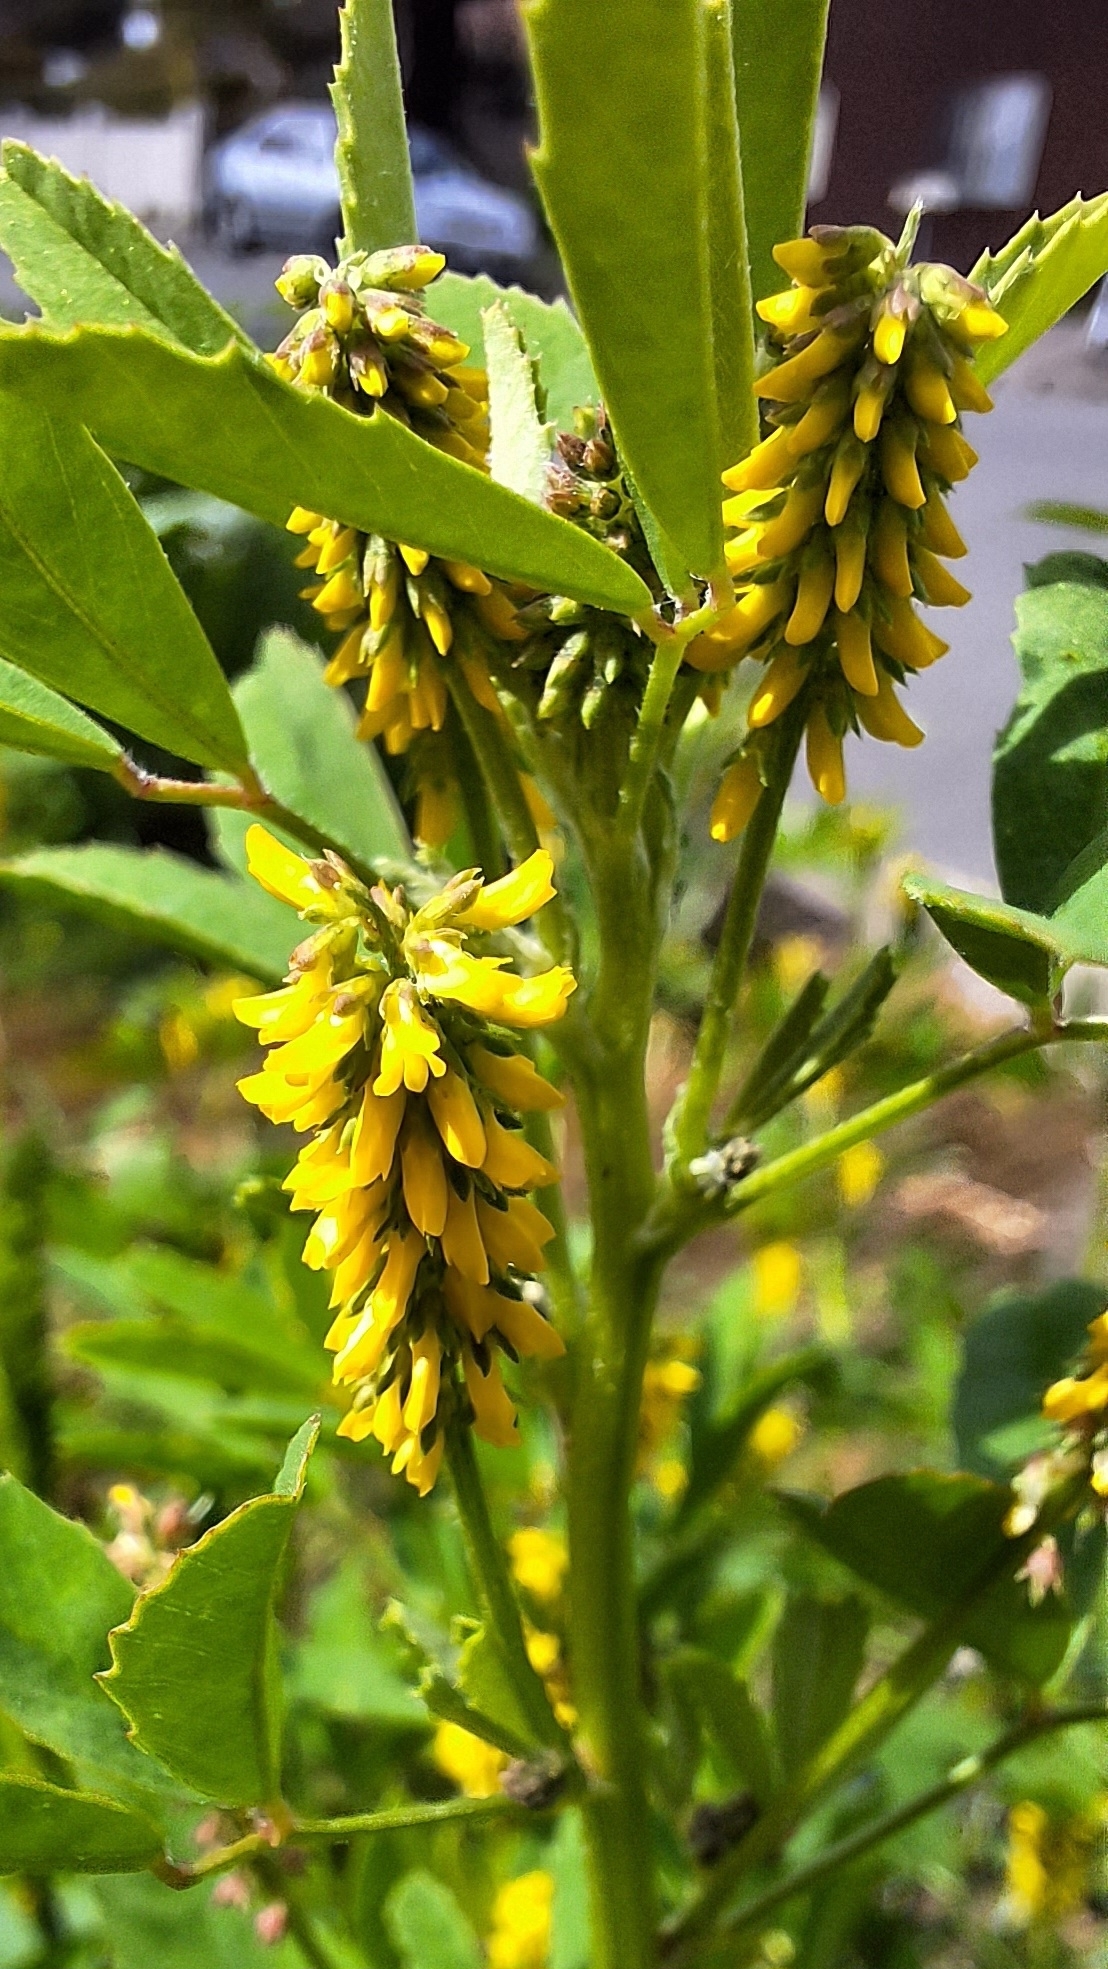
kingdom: Plantae
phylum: Tracheophyta
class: Magnoliopsida
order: Fabales
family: Fabaceae
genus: Melilotus
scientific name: Melilotus indicus
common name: Small melilot
